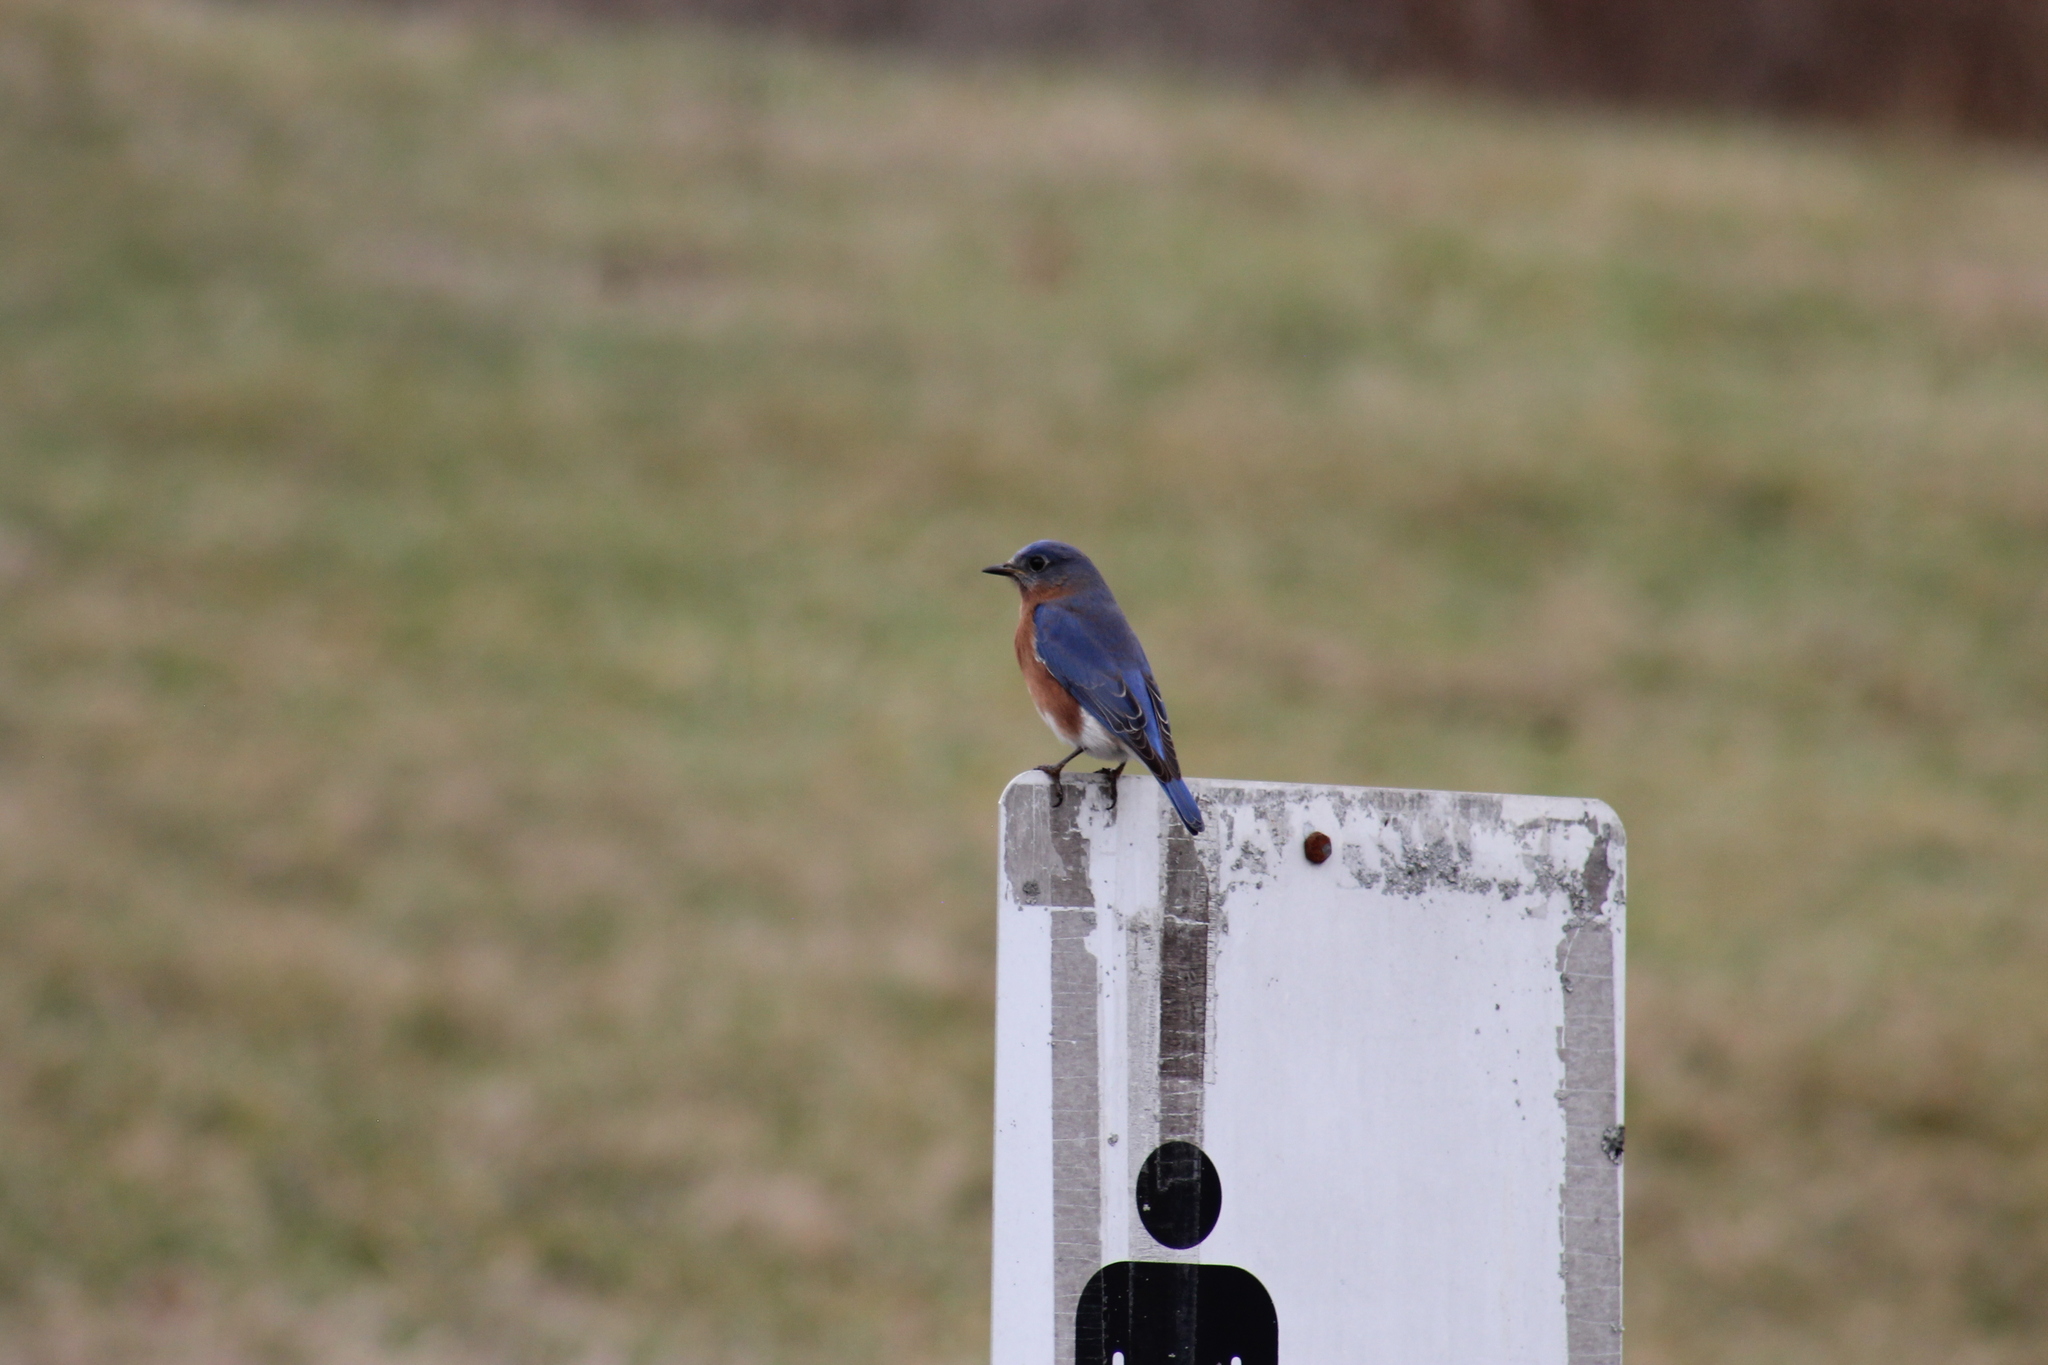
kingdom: Animalia
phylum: Chordata
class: Aves
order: Passeriformes
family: Turdidae
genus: Sialia
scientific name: Sialia sialis
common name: Eastern bluebird
